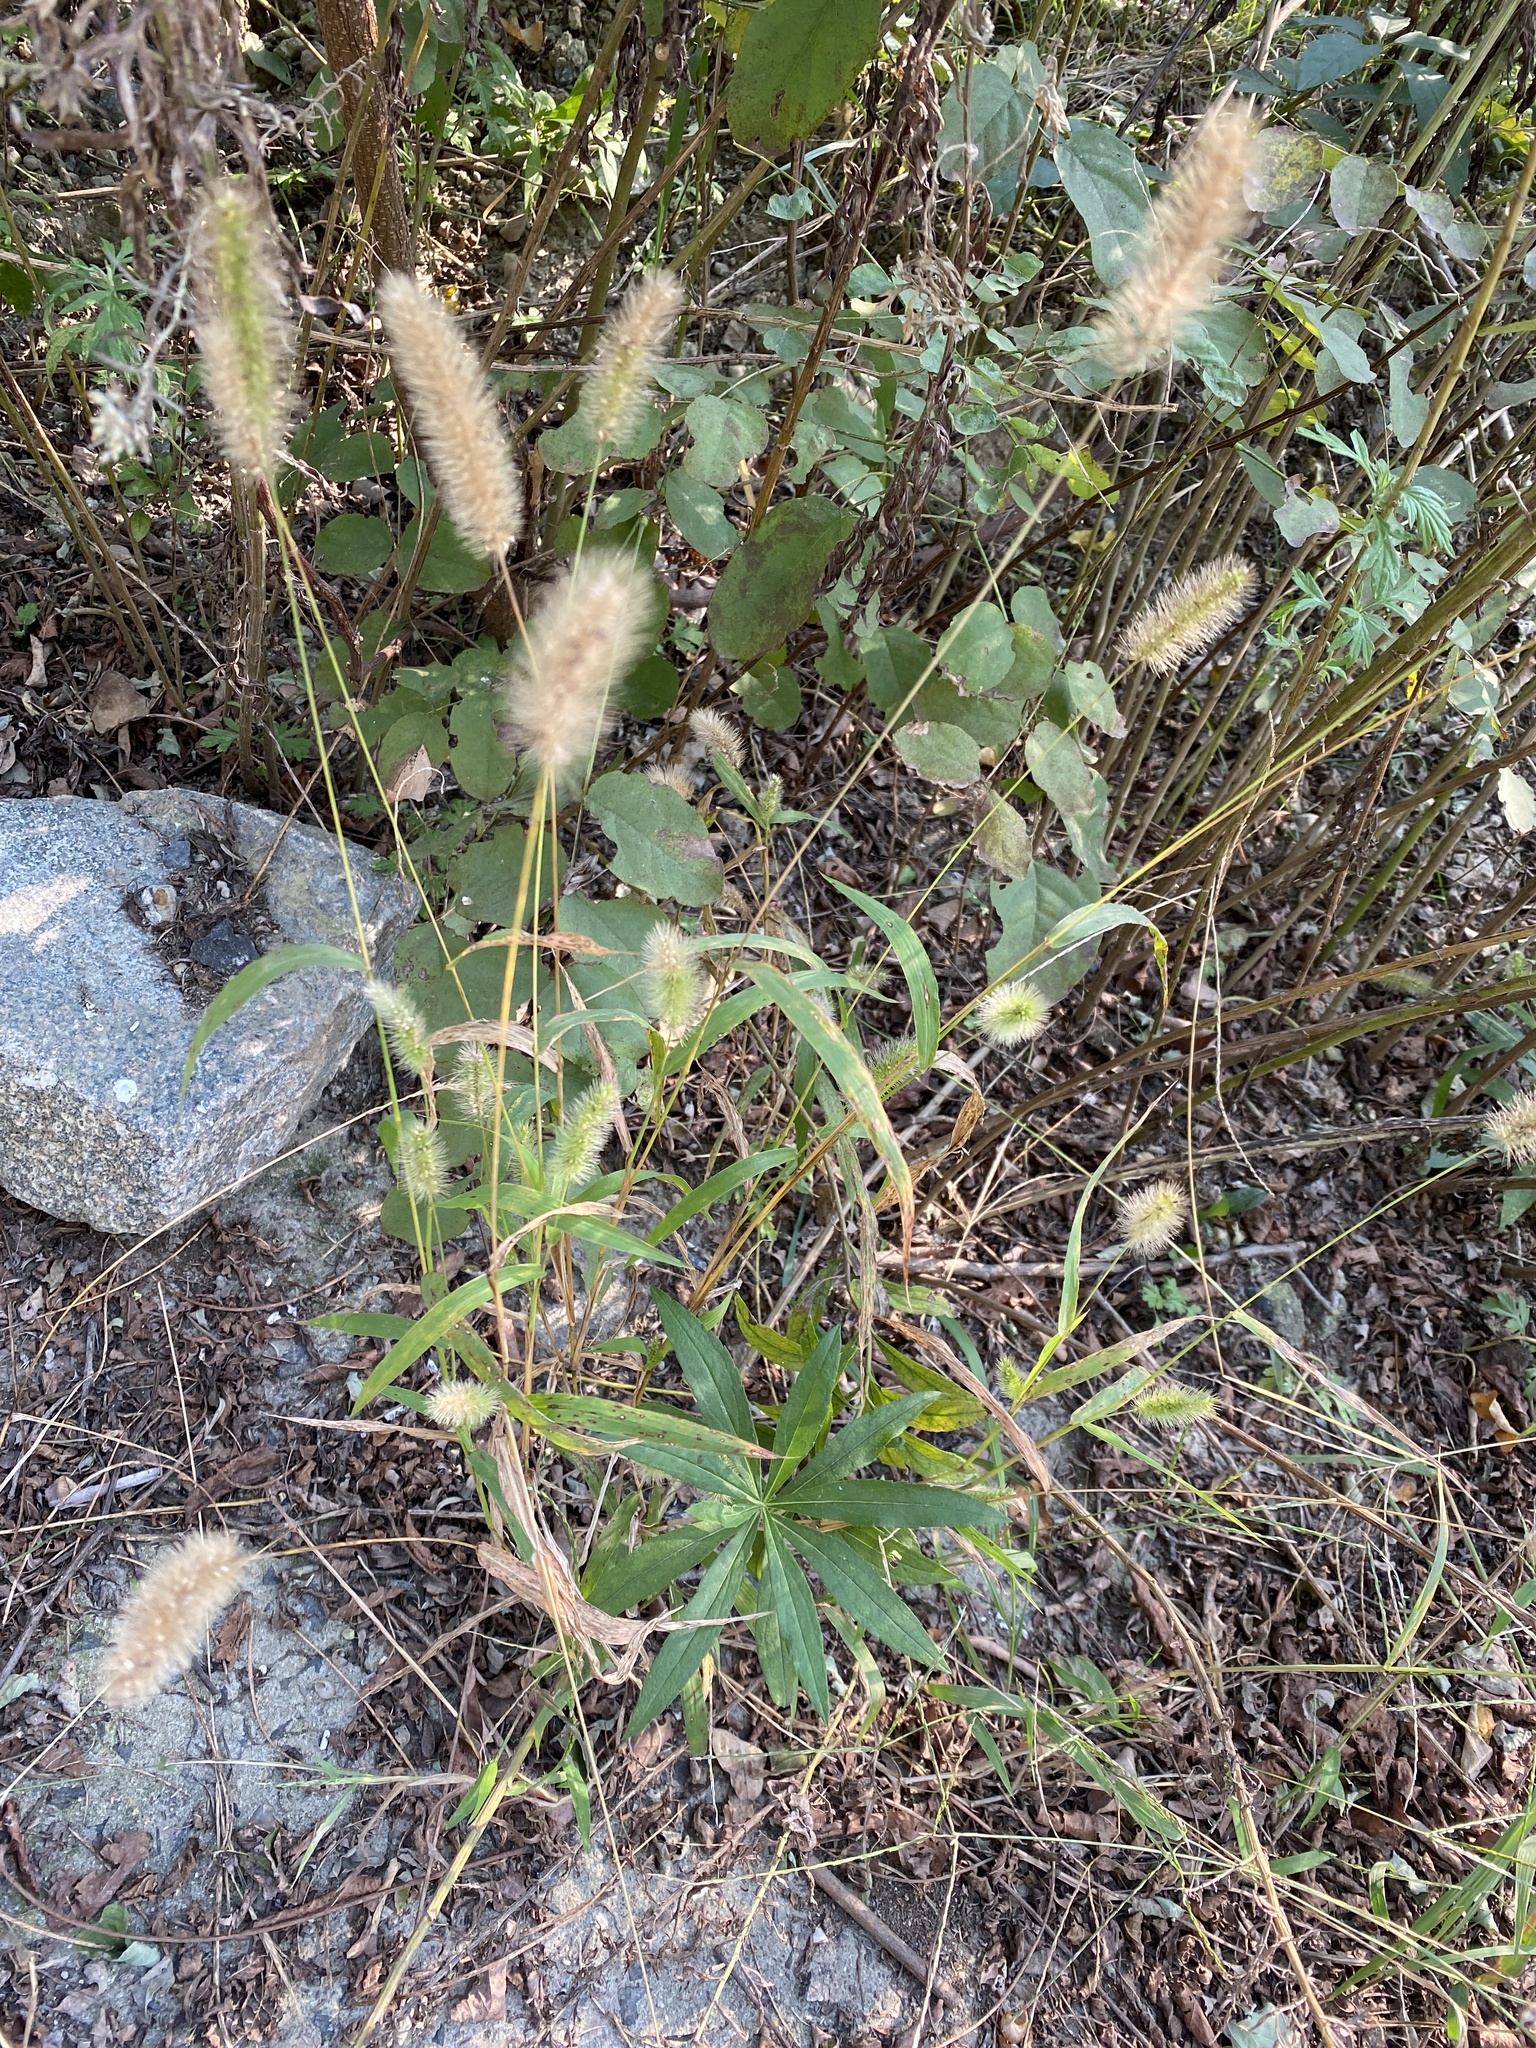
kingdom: Plantae
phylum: Tracheophyta
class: Liliopsida
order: Poales
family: Poaceae
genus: Setaria
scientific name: Setaria viridis
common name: Green bristlegrass
